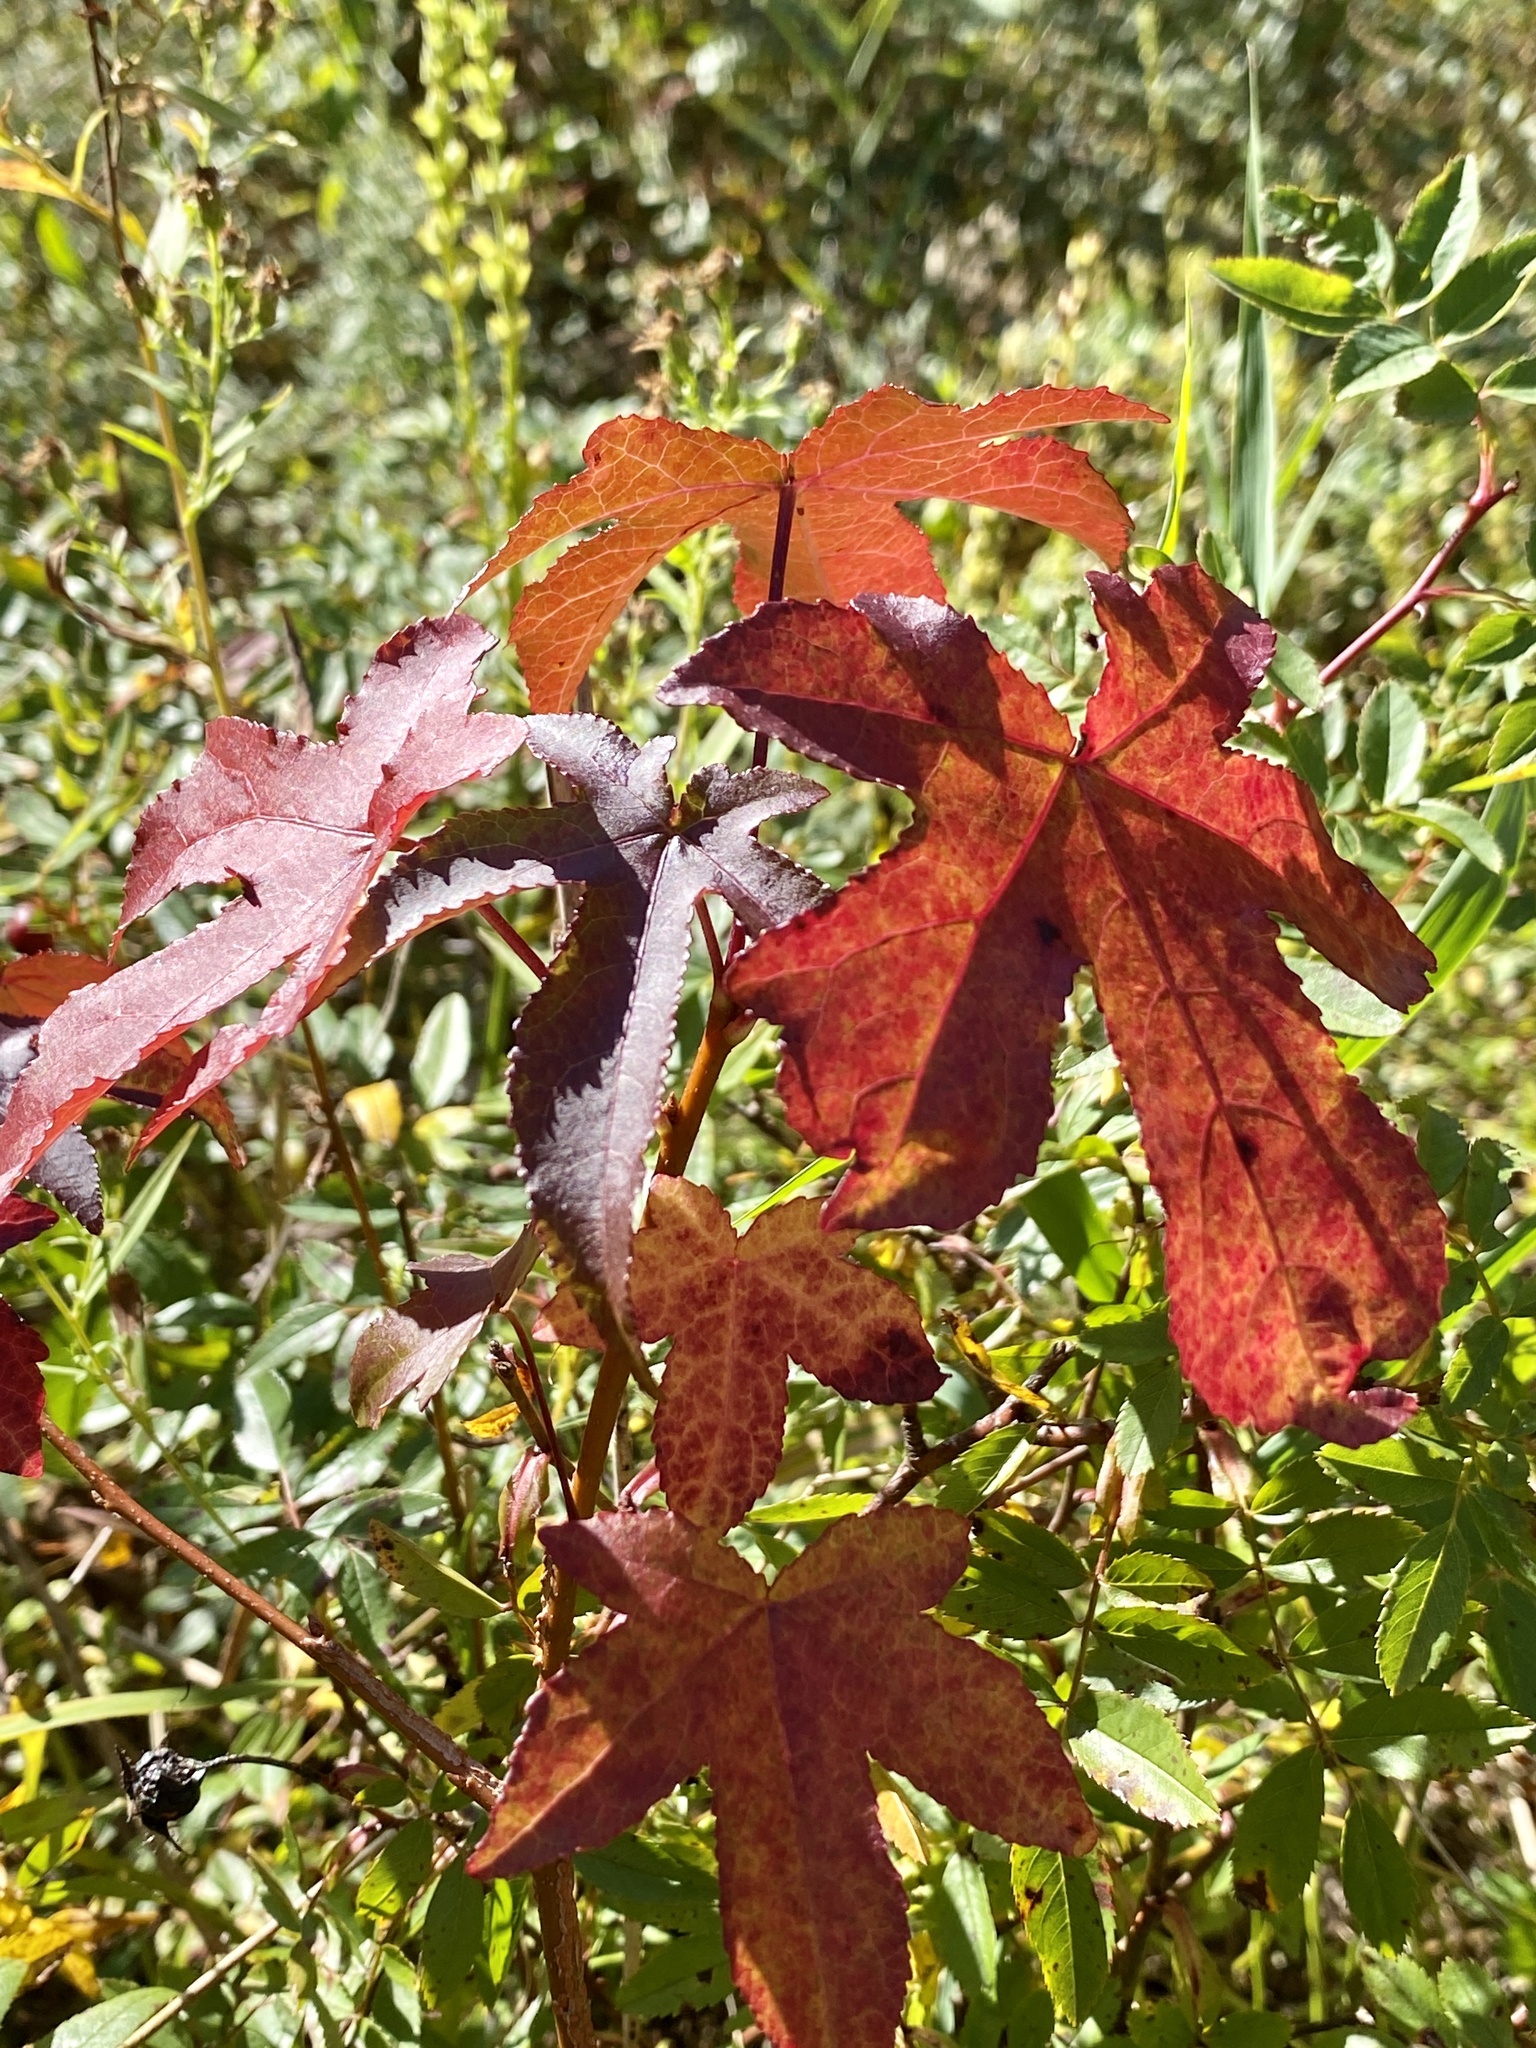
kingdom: Plantae
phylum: Tracheophyta
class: Magnoliopsida
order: Saxifragales
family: Altingiaceae
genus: Liquidambar
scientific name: Liquidambar styraciflua
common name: Sweet gum
